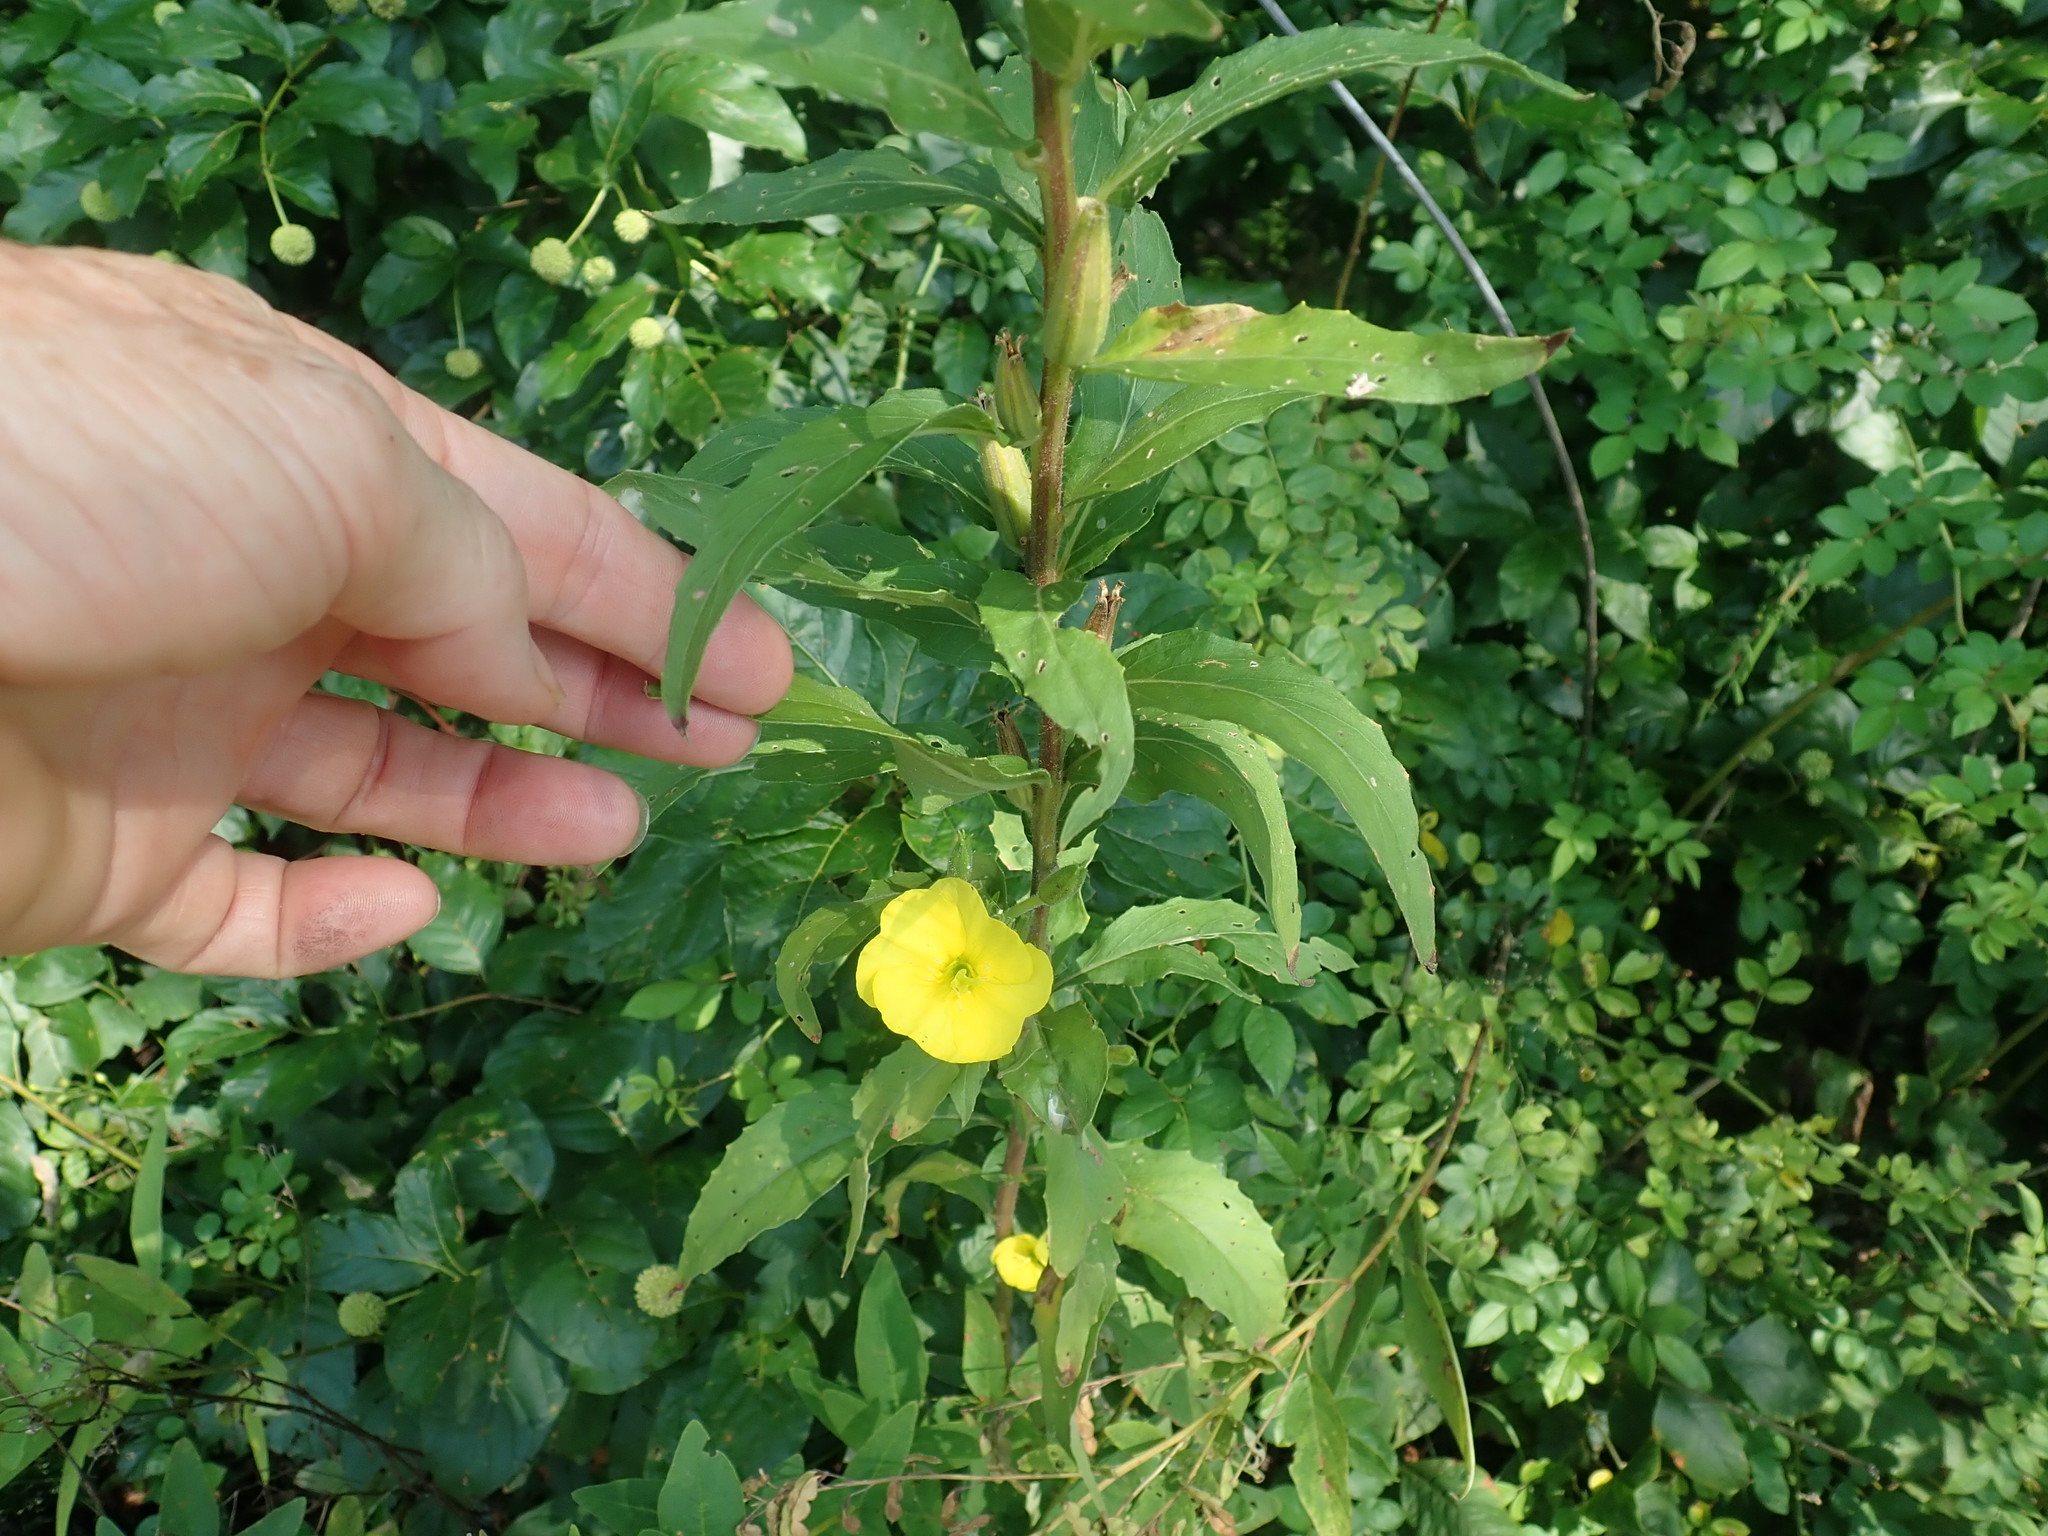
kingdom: Plantae
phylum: Tracheophyta
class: Magnoliopsida
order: Myrtales
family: Onagraceae
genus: Oenothera
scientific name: Oenothera biennis
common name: Common evening-primrose
